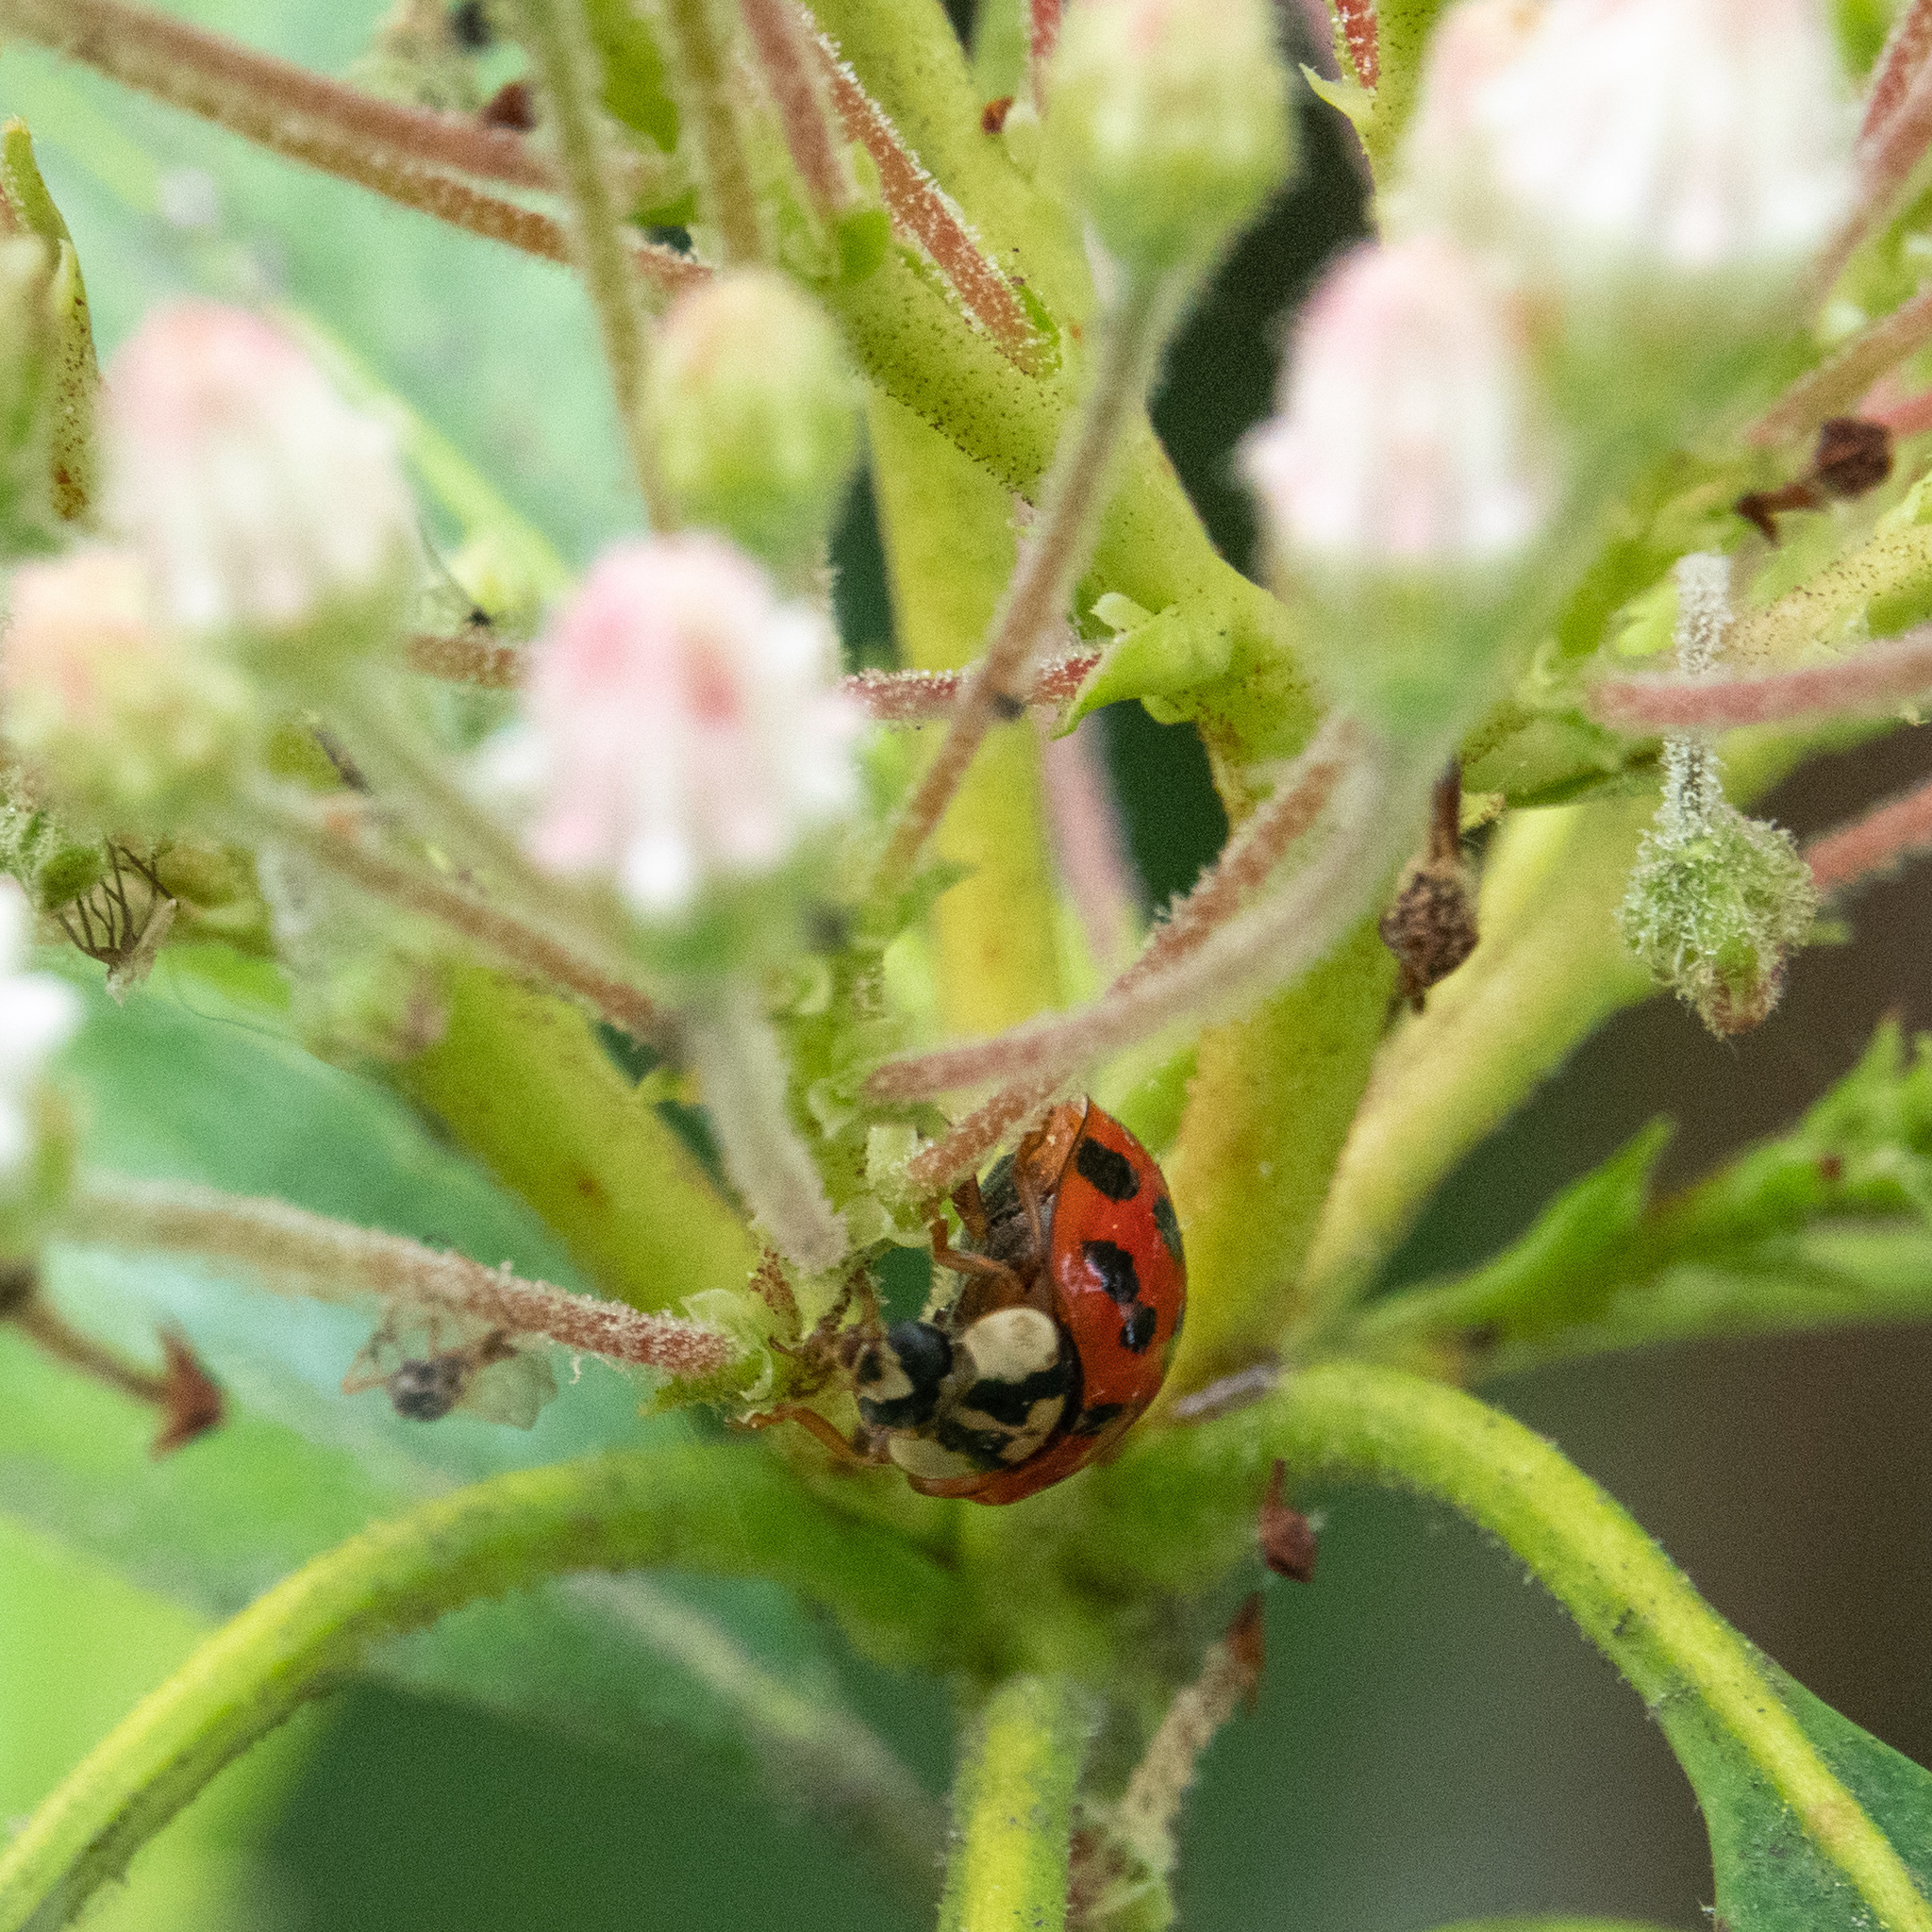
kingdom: Animalia
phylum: Arthropoda
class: Insecta
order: Coleoptera
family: Coccinellidae
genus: Harmonia
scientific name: Harmonia axyridis
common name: Harlequin ladybird
